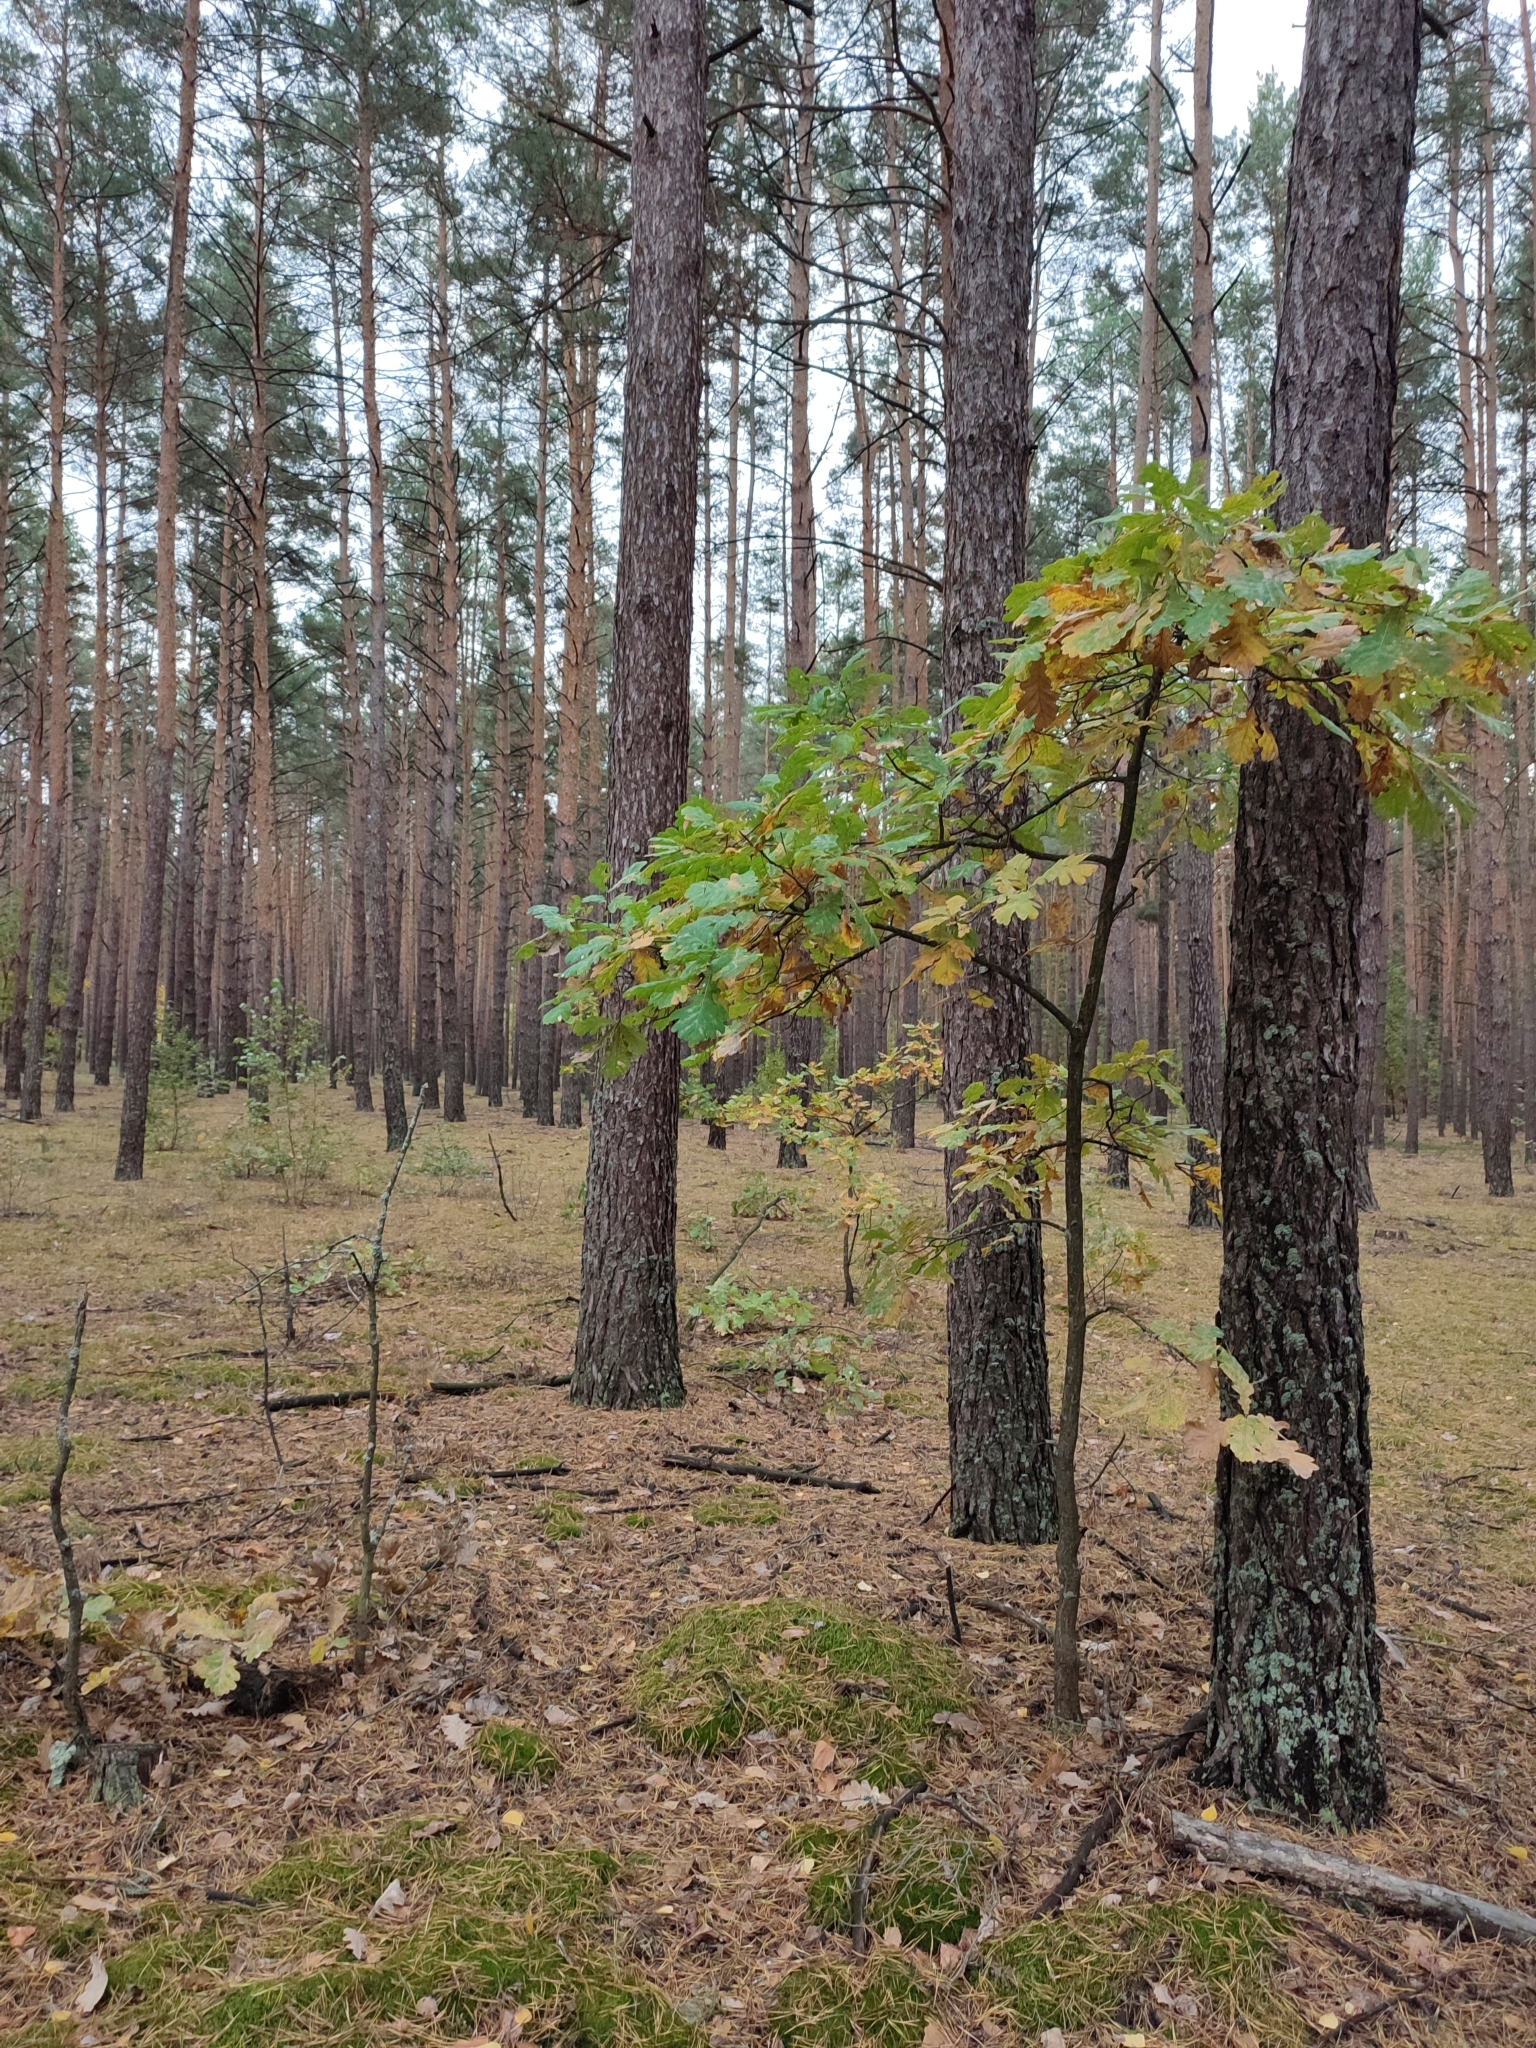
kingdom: Plantae
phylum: Tracheophyta
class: Magnoliopsida
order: Fagales
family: Fagaceae
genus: Quercus
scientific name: Quercus robur
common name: Pedunculate oak
